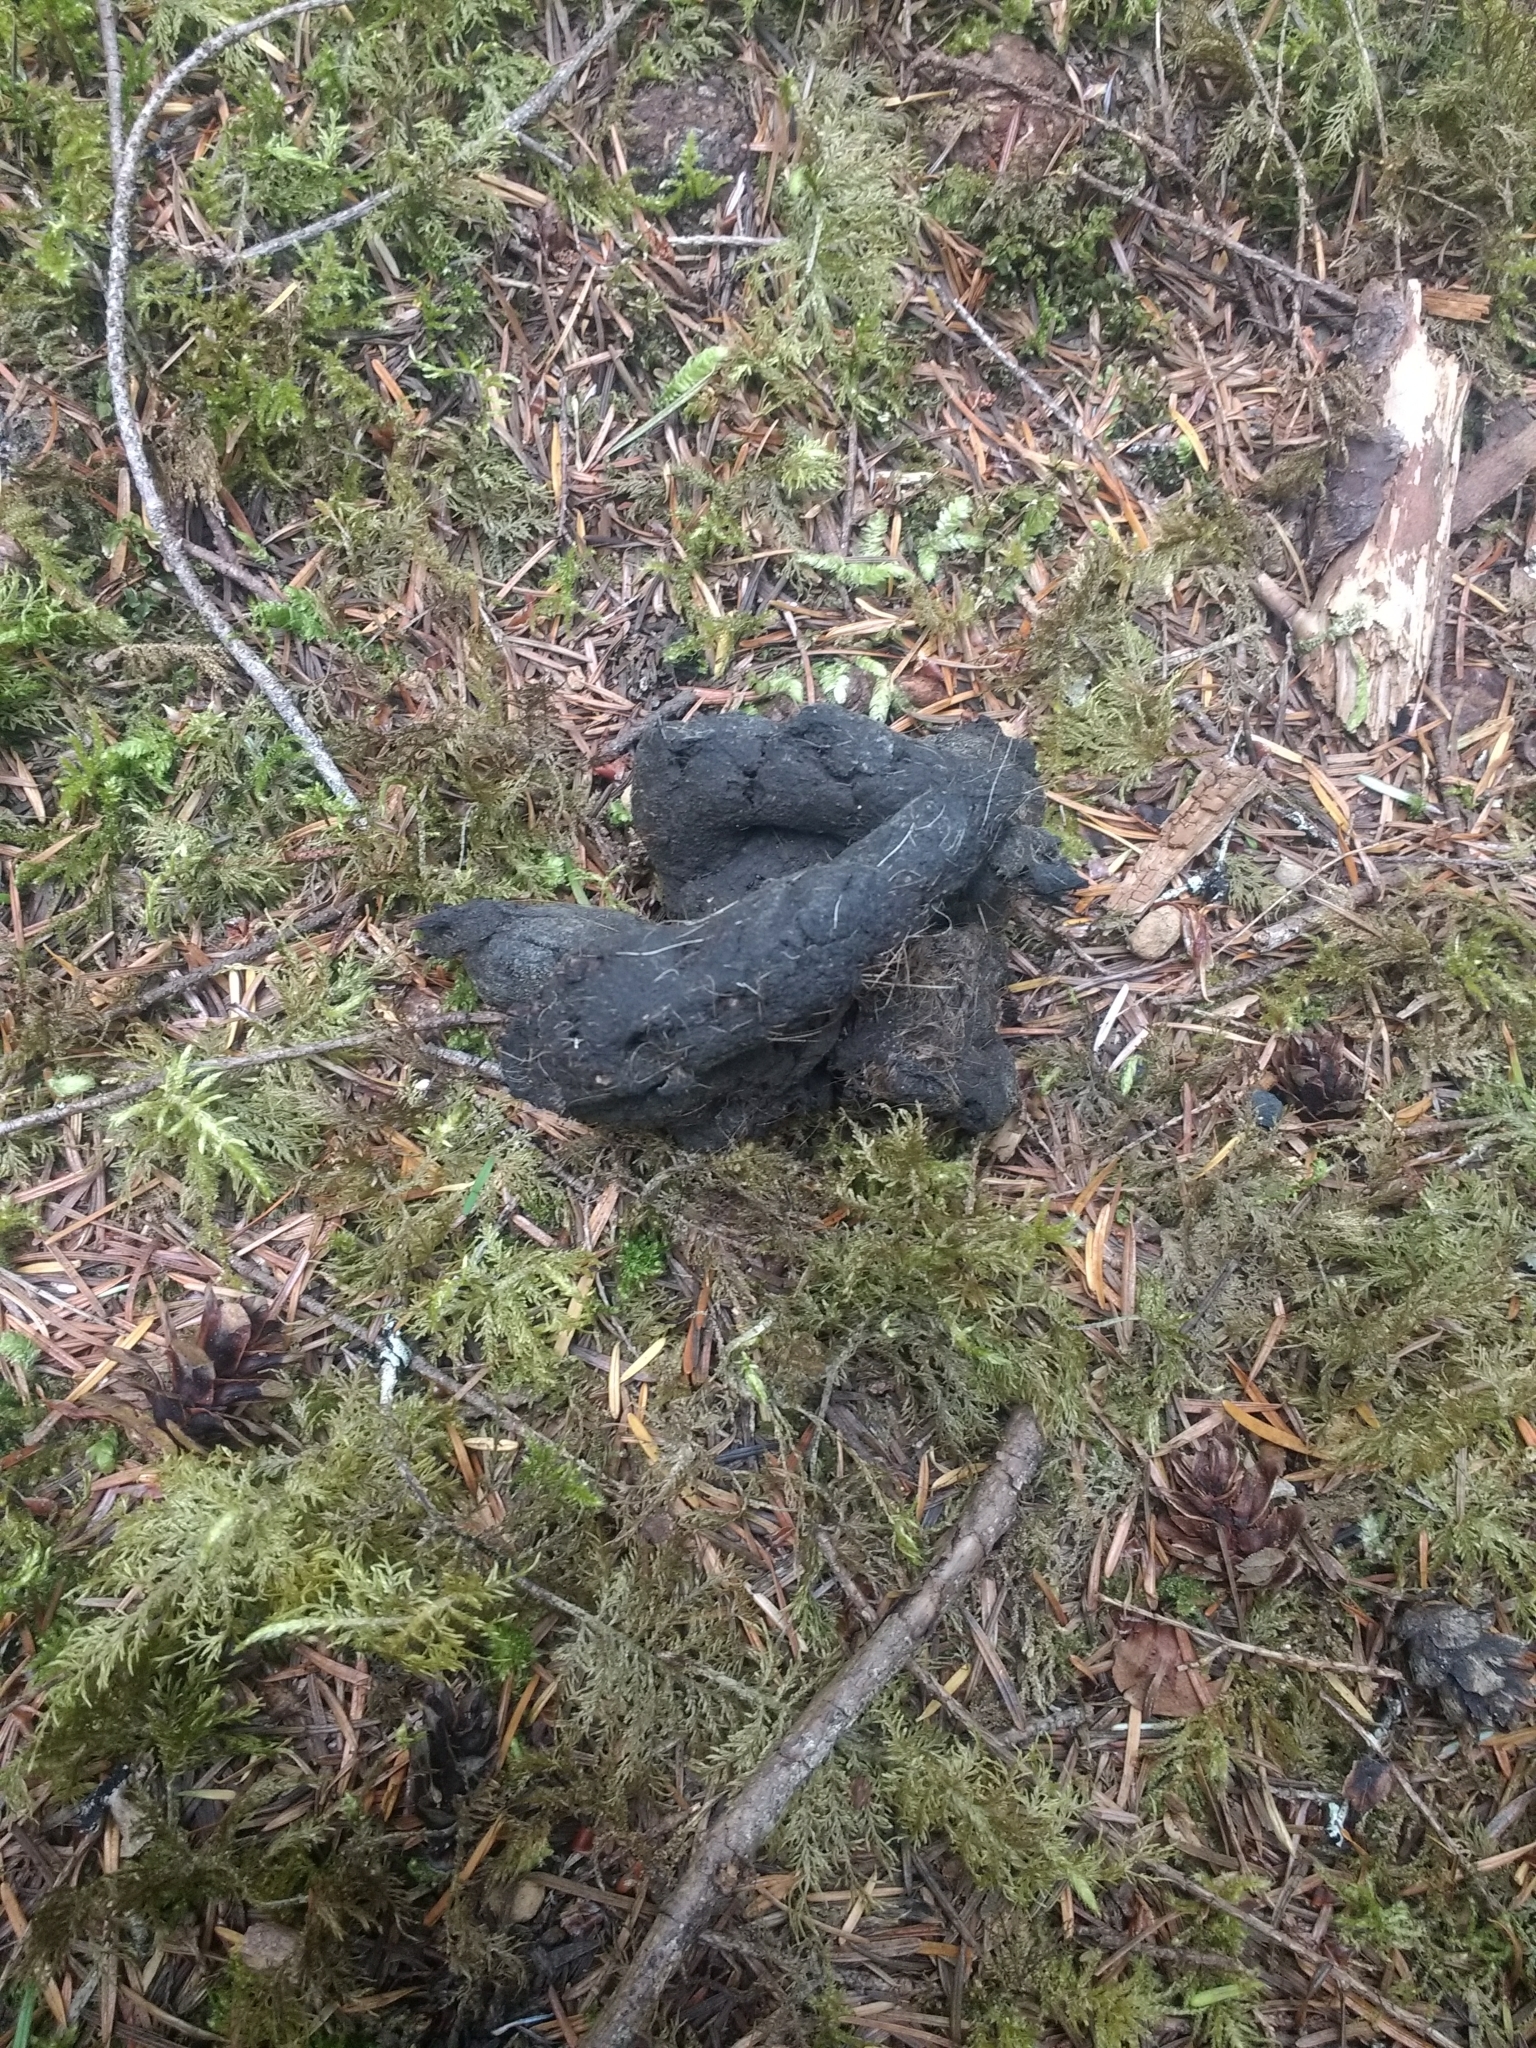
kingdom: Animalia
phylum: Chordata
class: Mammalia
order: Carnivora
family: Canidae
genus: Canis
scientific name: Canis lupus
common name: Gray wolf
